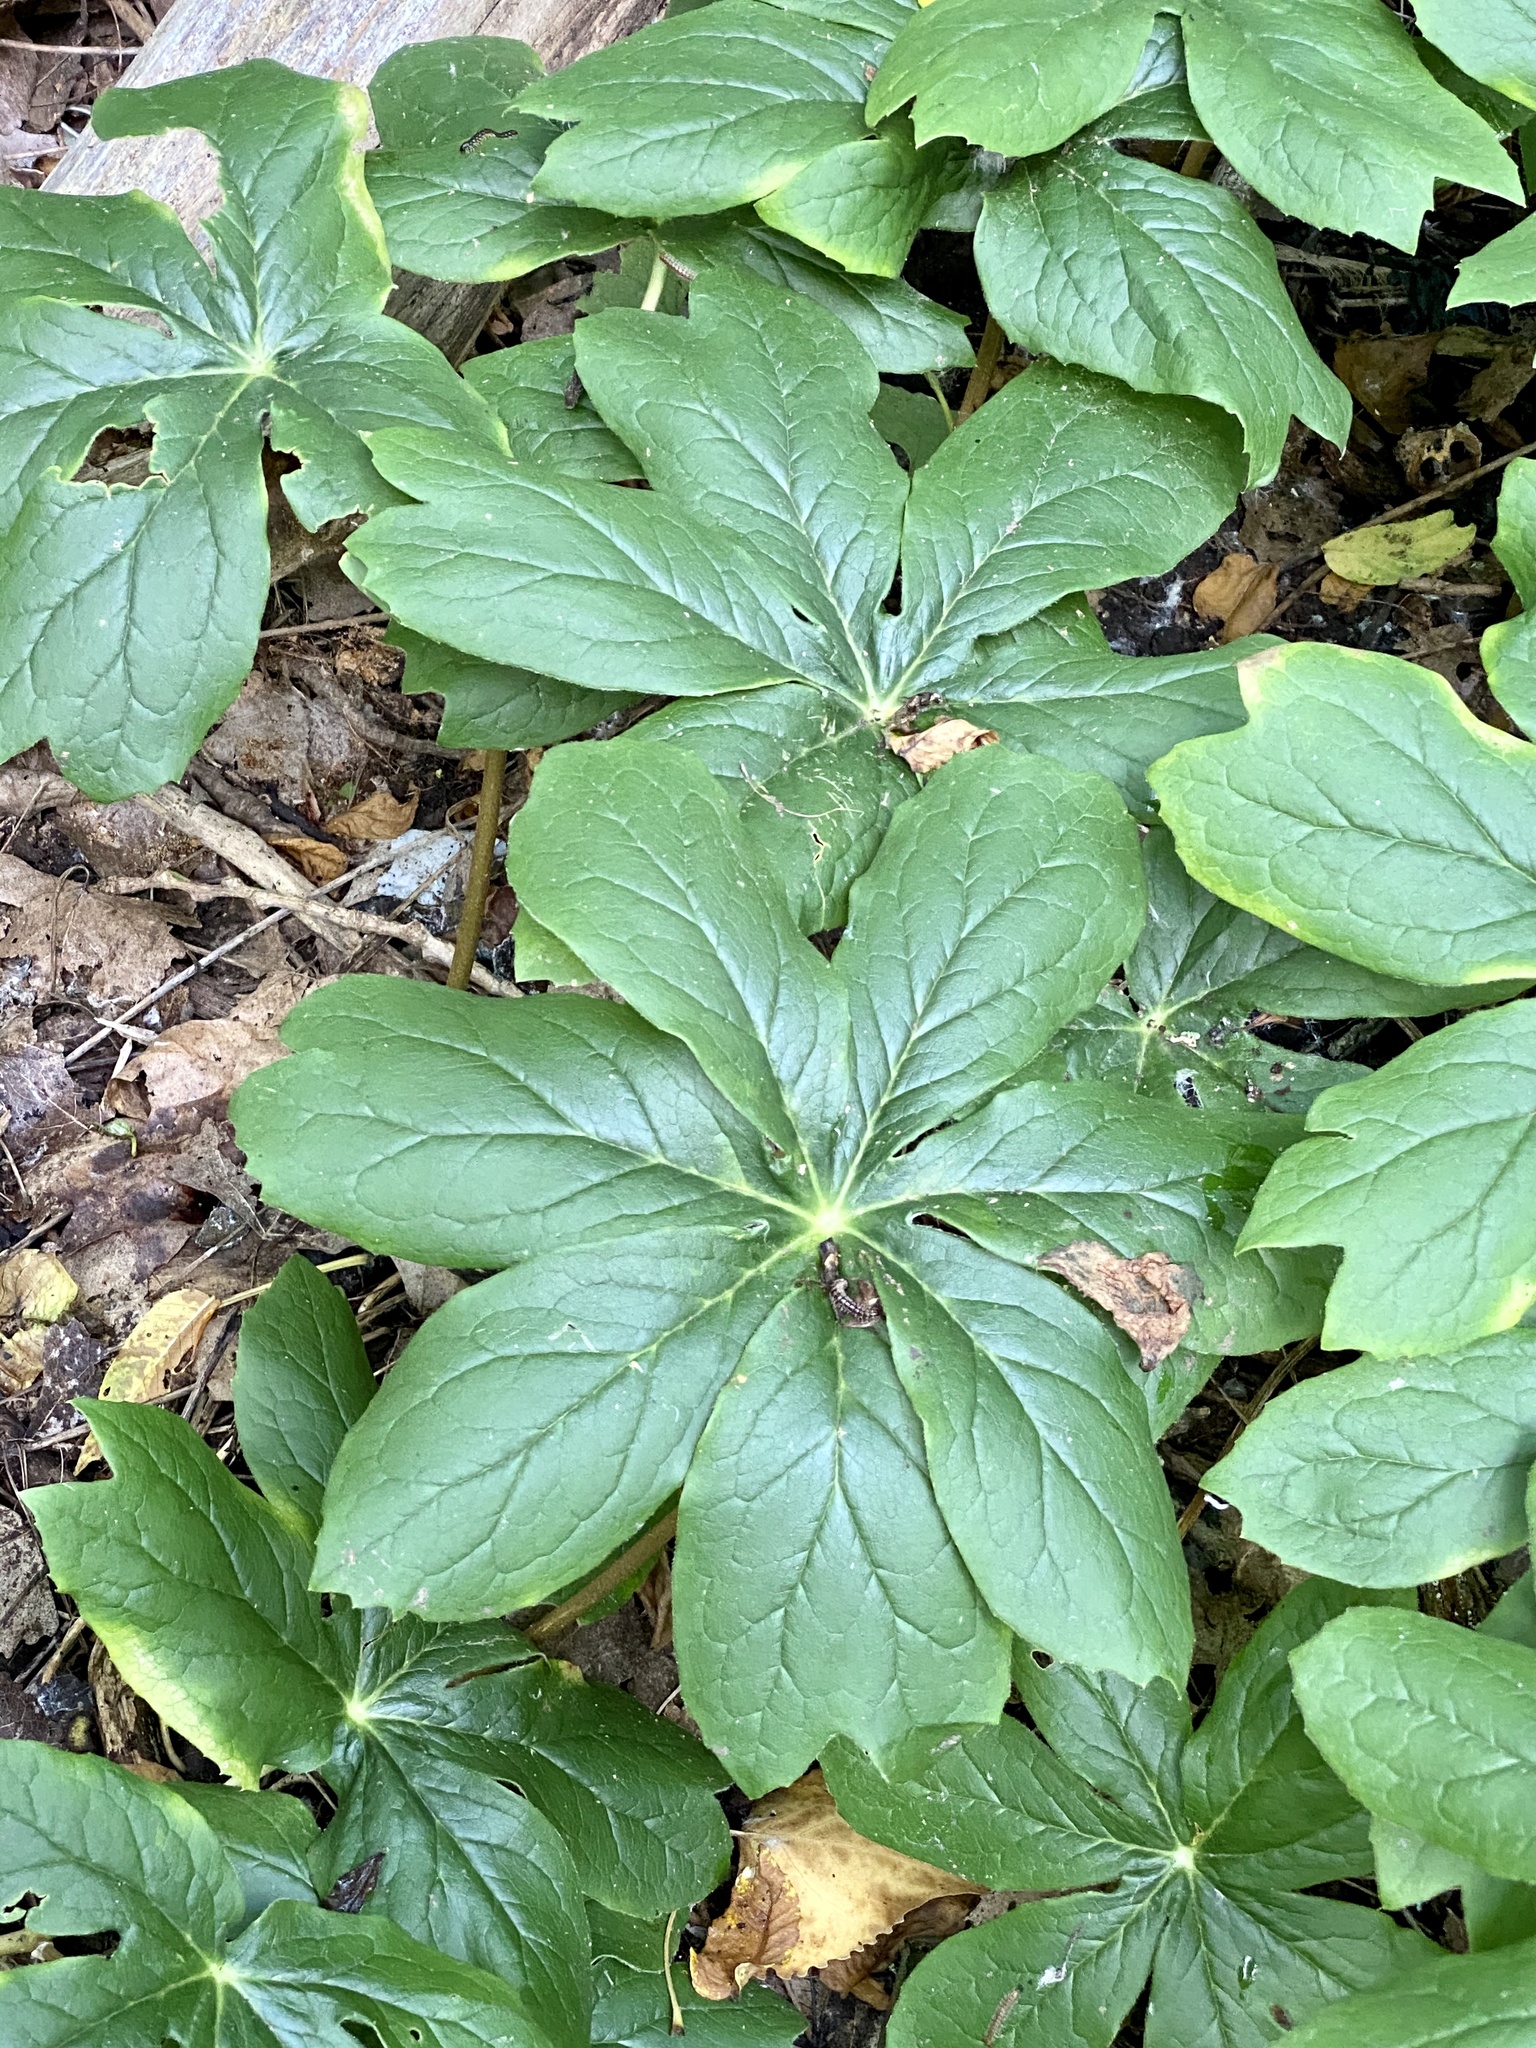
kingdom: Plantae
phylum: Tracheophyta
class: Magnoliopsida
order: Ranunculales
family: Berberidaceae
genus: Podophyllum
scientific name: Podophyllum peltatum
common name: Wild mandrake
